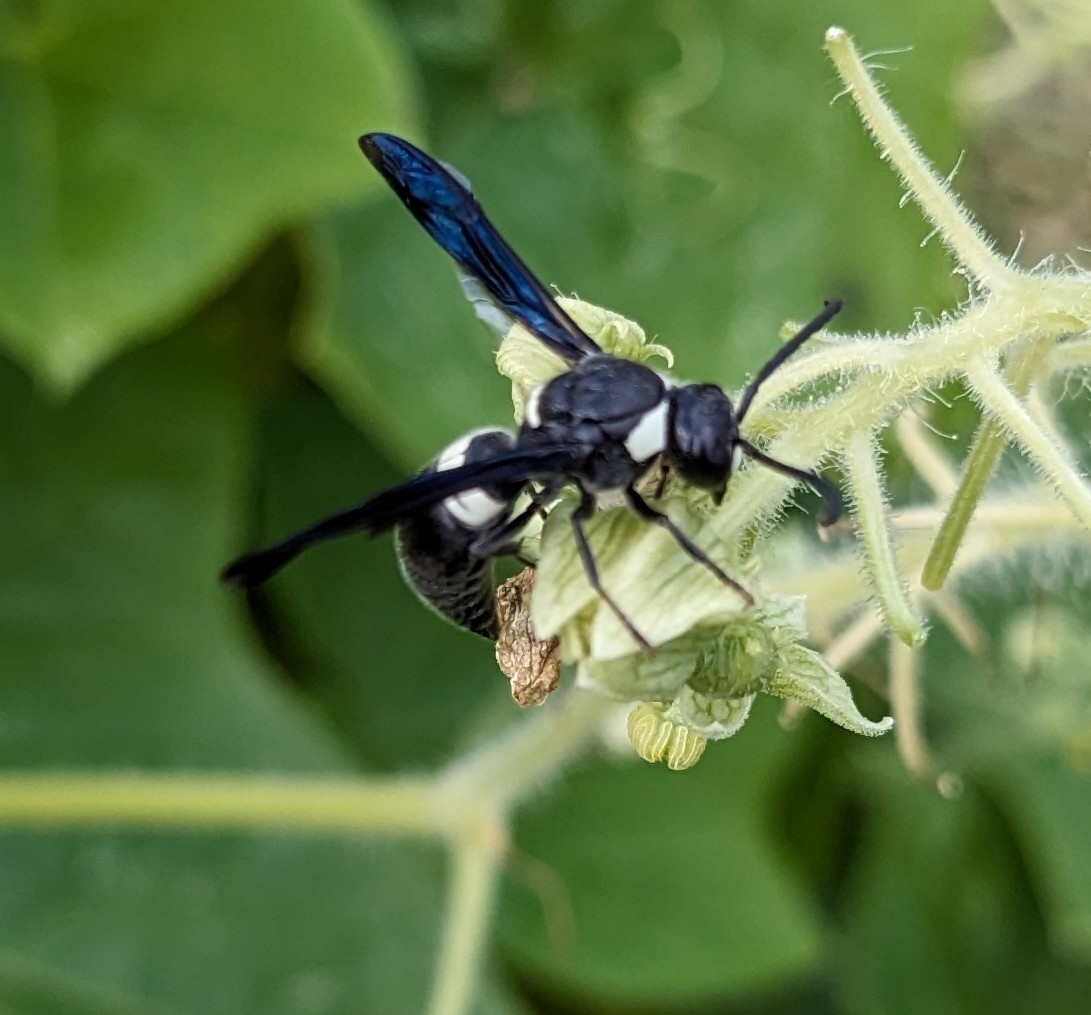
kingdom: Animalia
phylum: Arthropoda
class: Insecta
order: Hymenoptera
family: Eumenidae
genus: Monobia
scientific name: Monobia quadridens
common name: Four-toothed mason wasp
